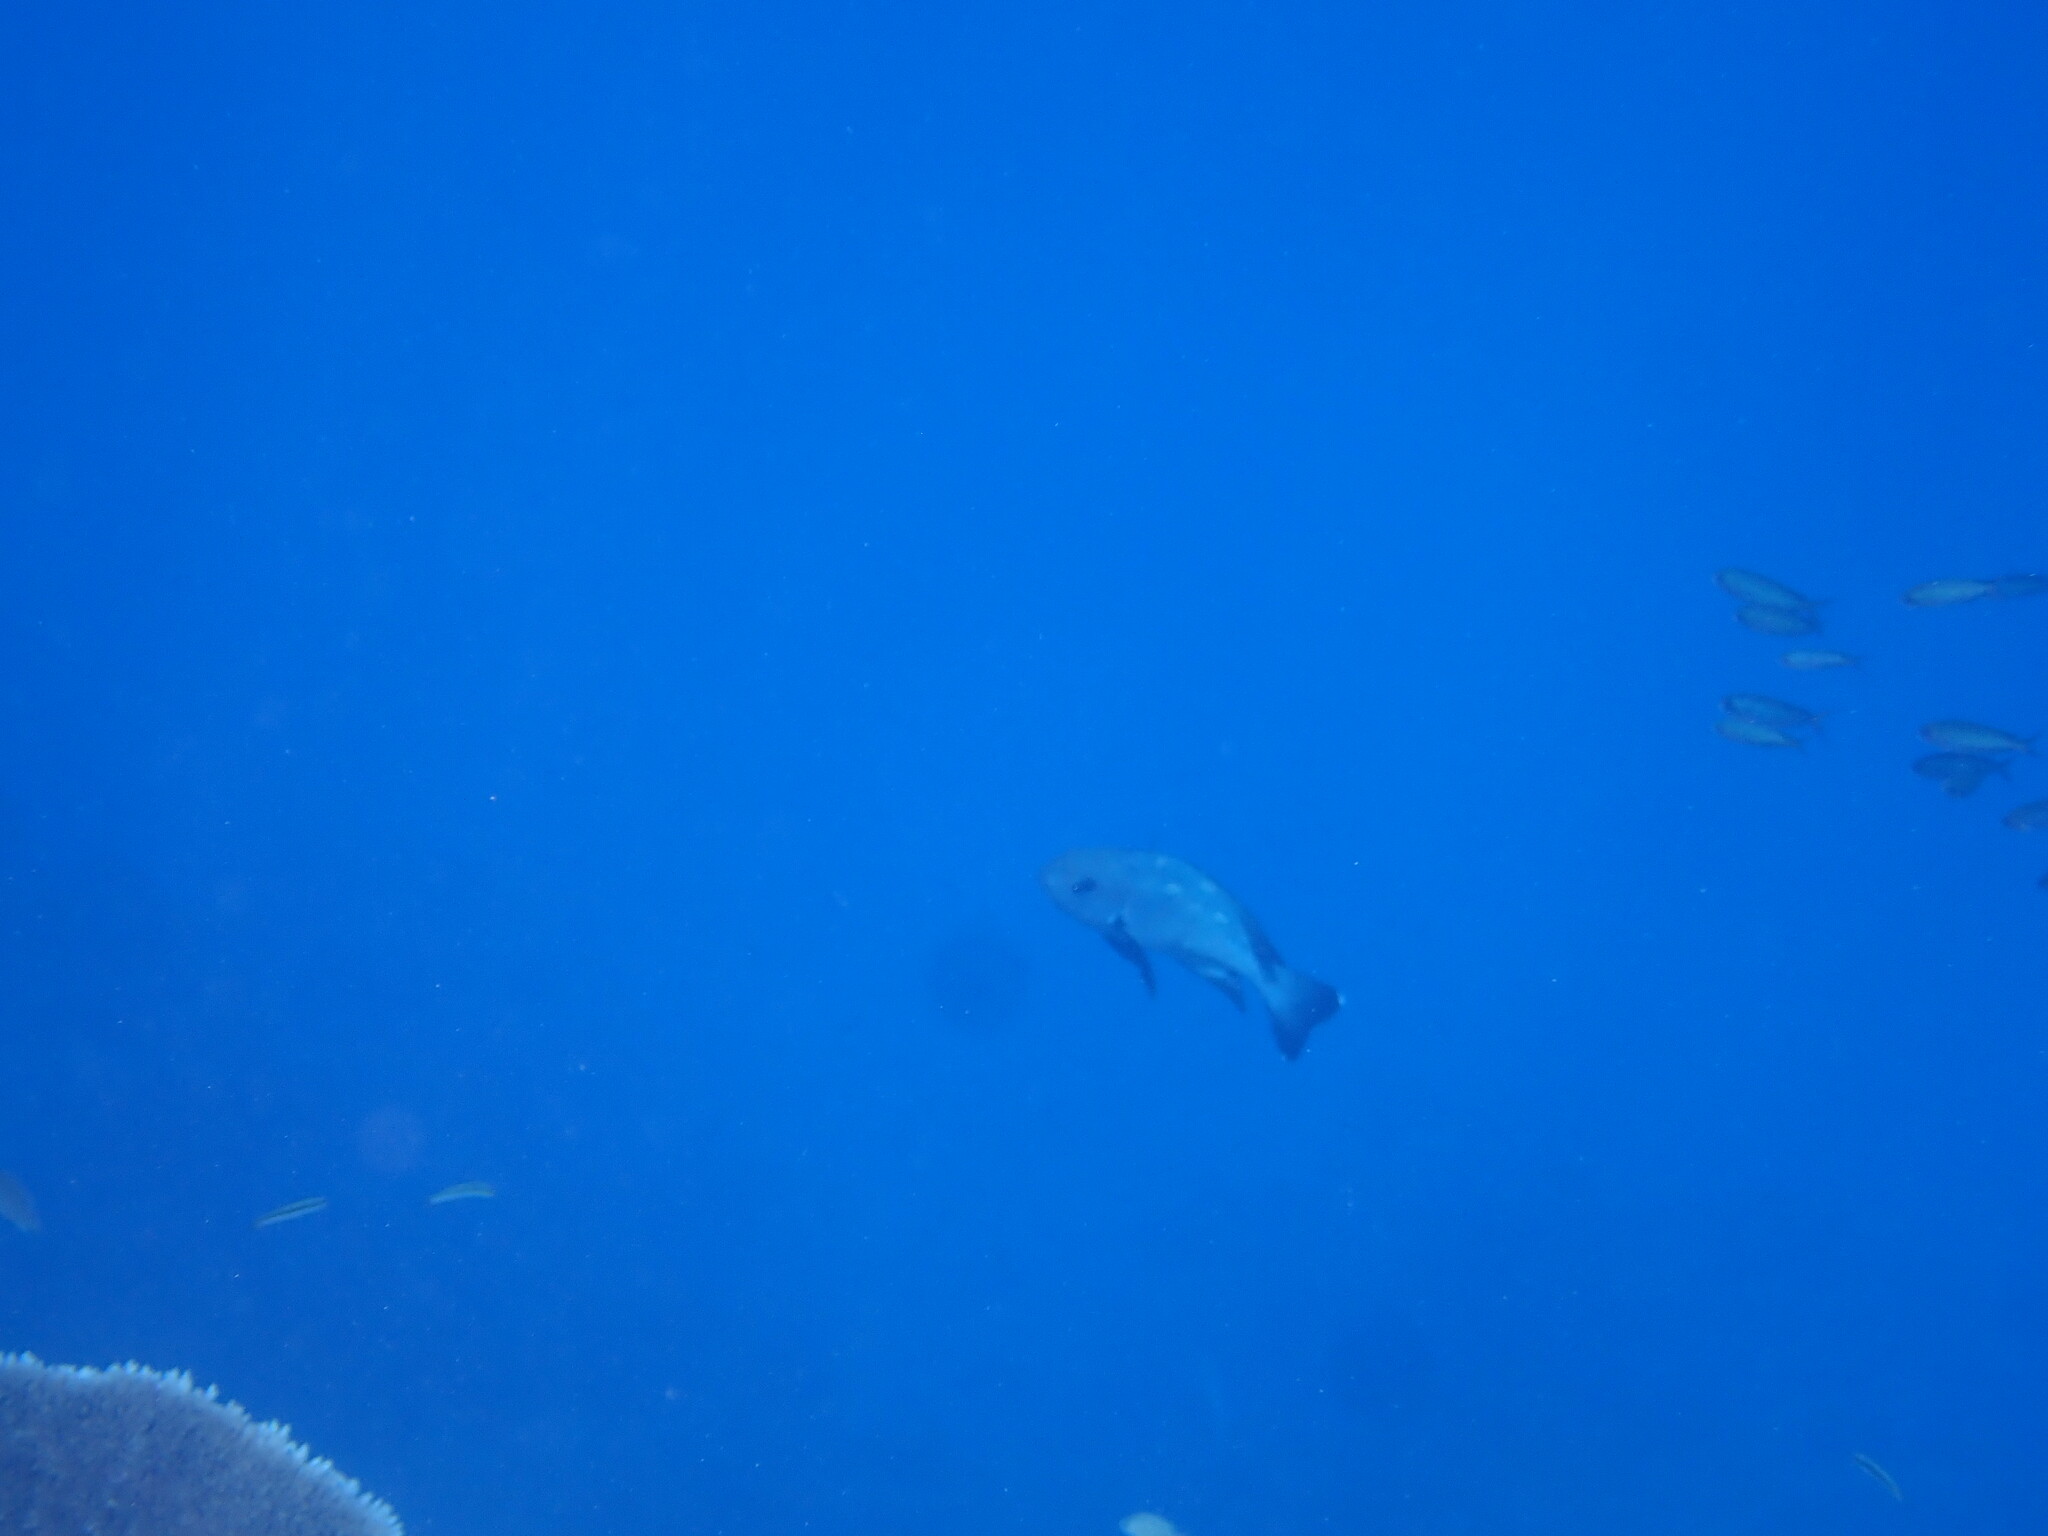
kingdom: Animalia
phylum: Chordata
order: Perciformes
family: Lutjanidae
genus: Macolor
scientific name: Macolor niger
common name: Black snapper
